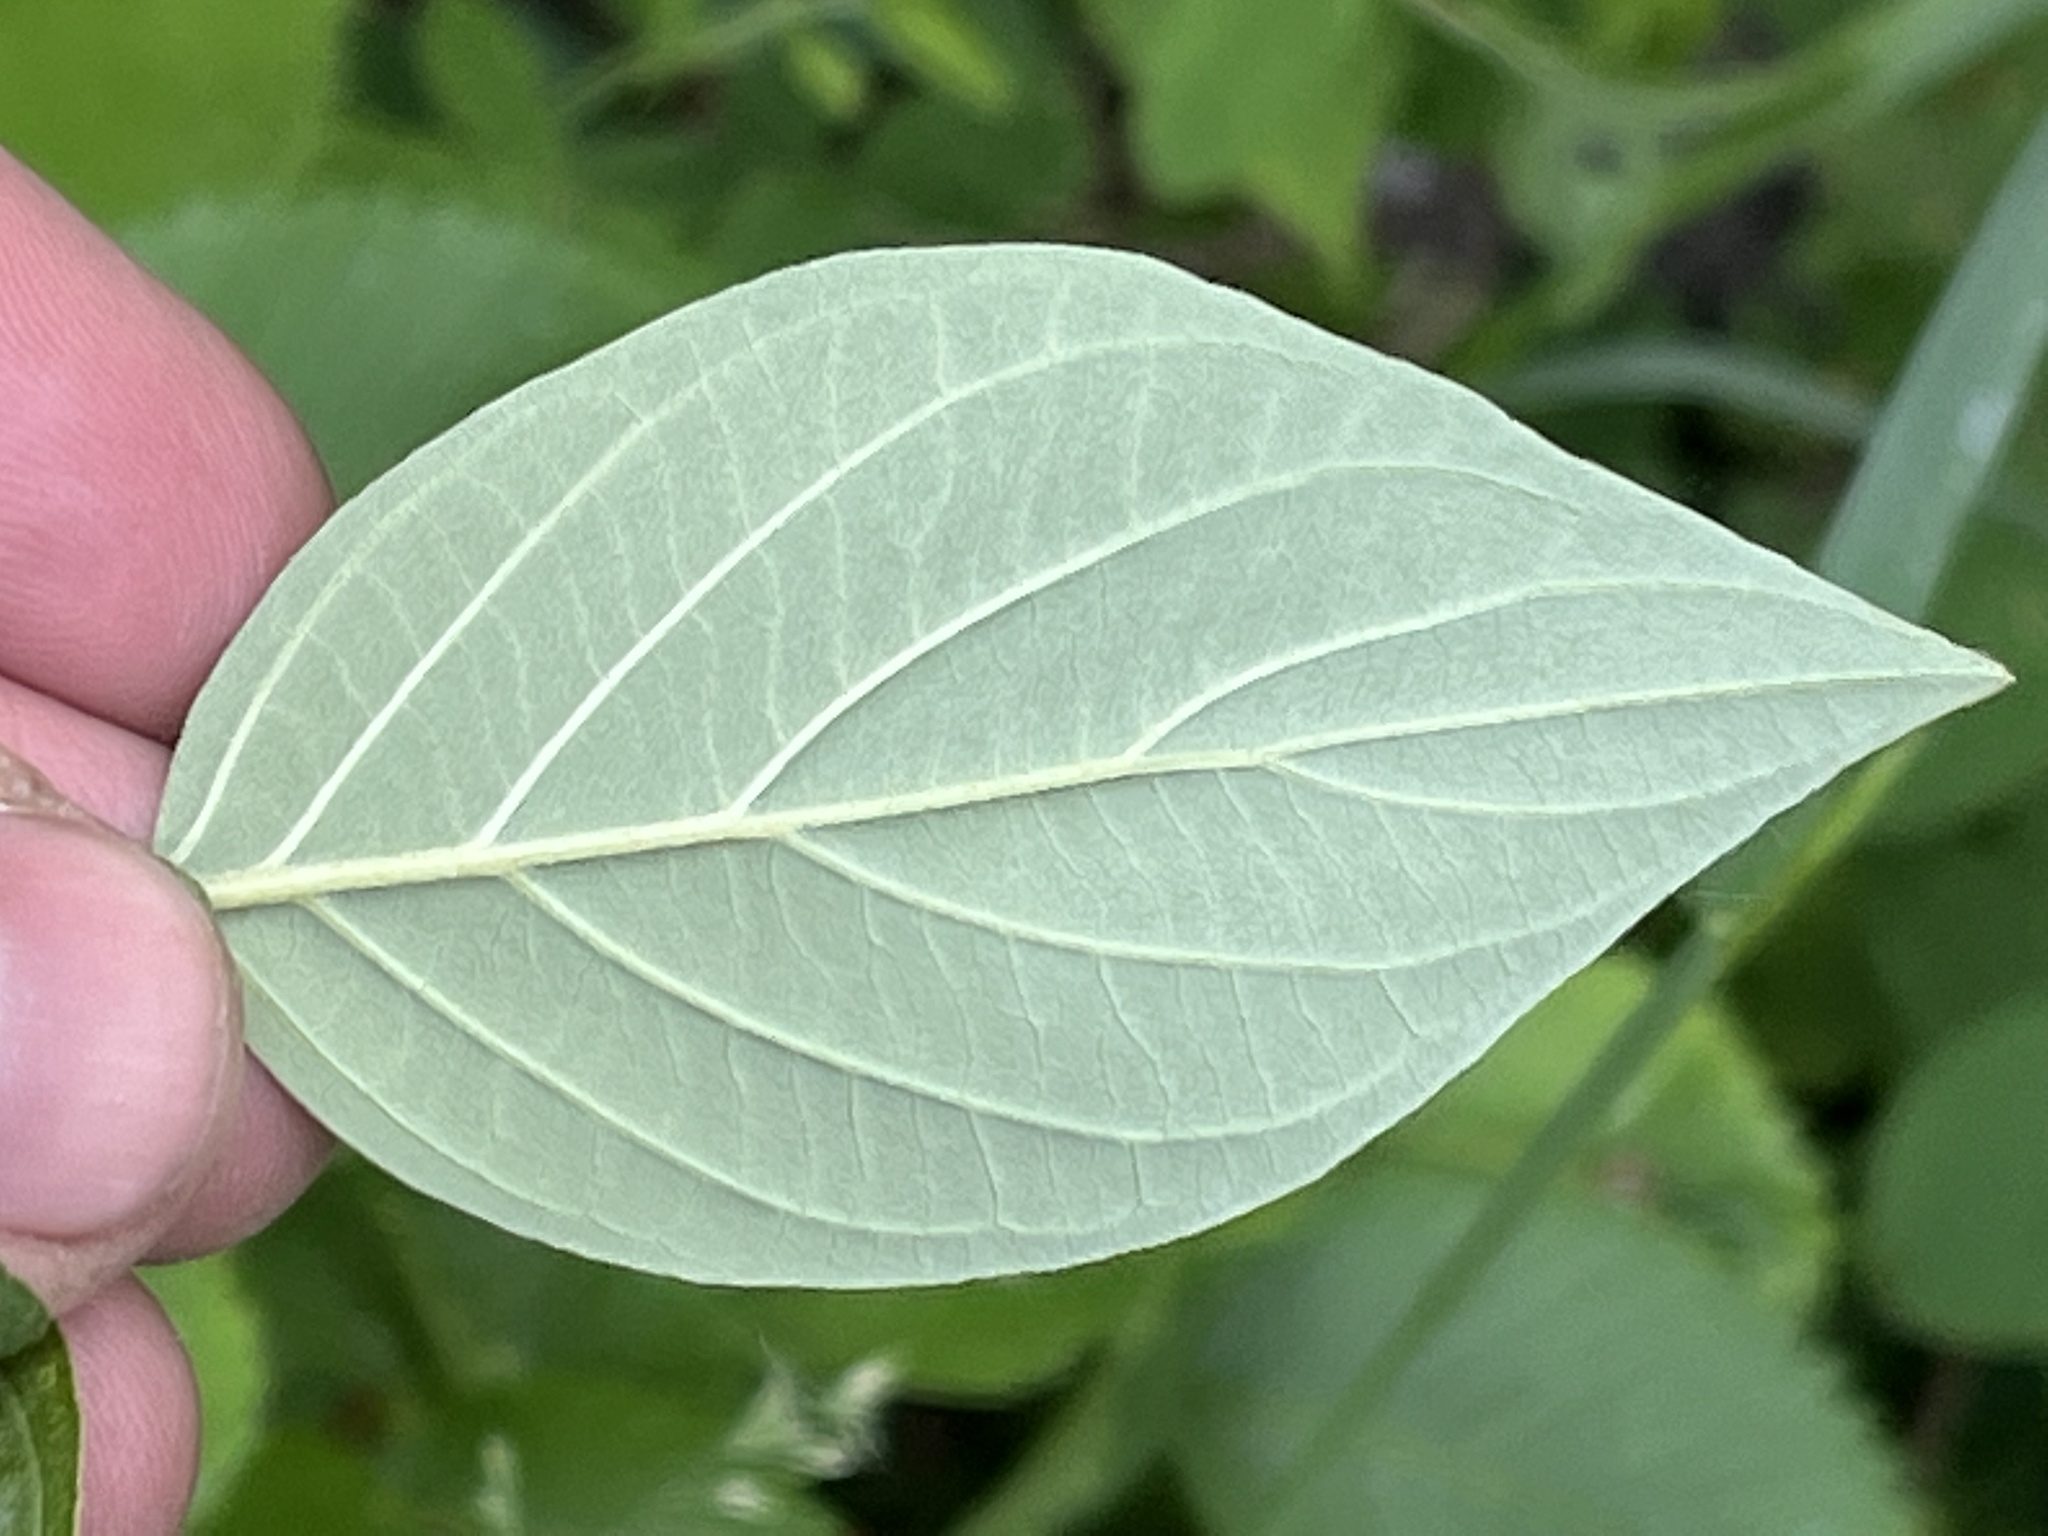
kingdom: Plantae
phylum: Tracheophyta
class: Magnoliopsida
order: Cornales
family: Cornaceae
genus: Cornus
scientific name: Cornus sericea
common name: Red-osier dogwood
